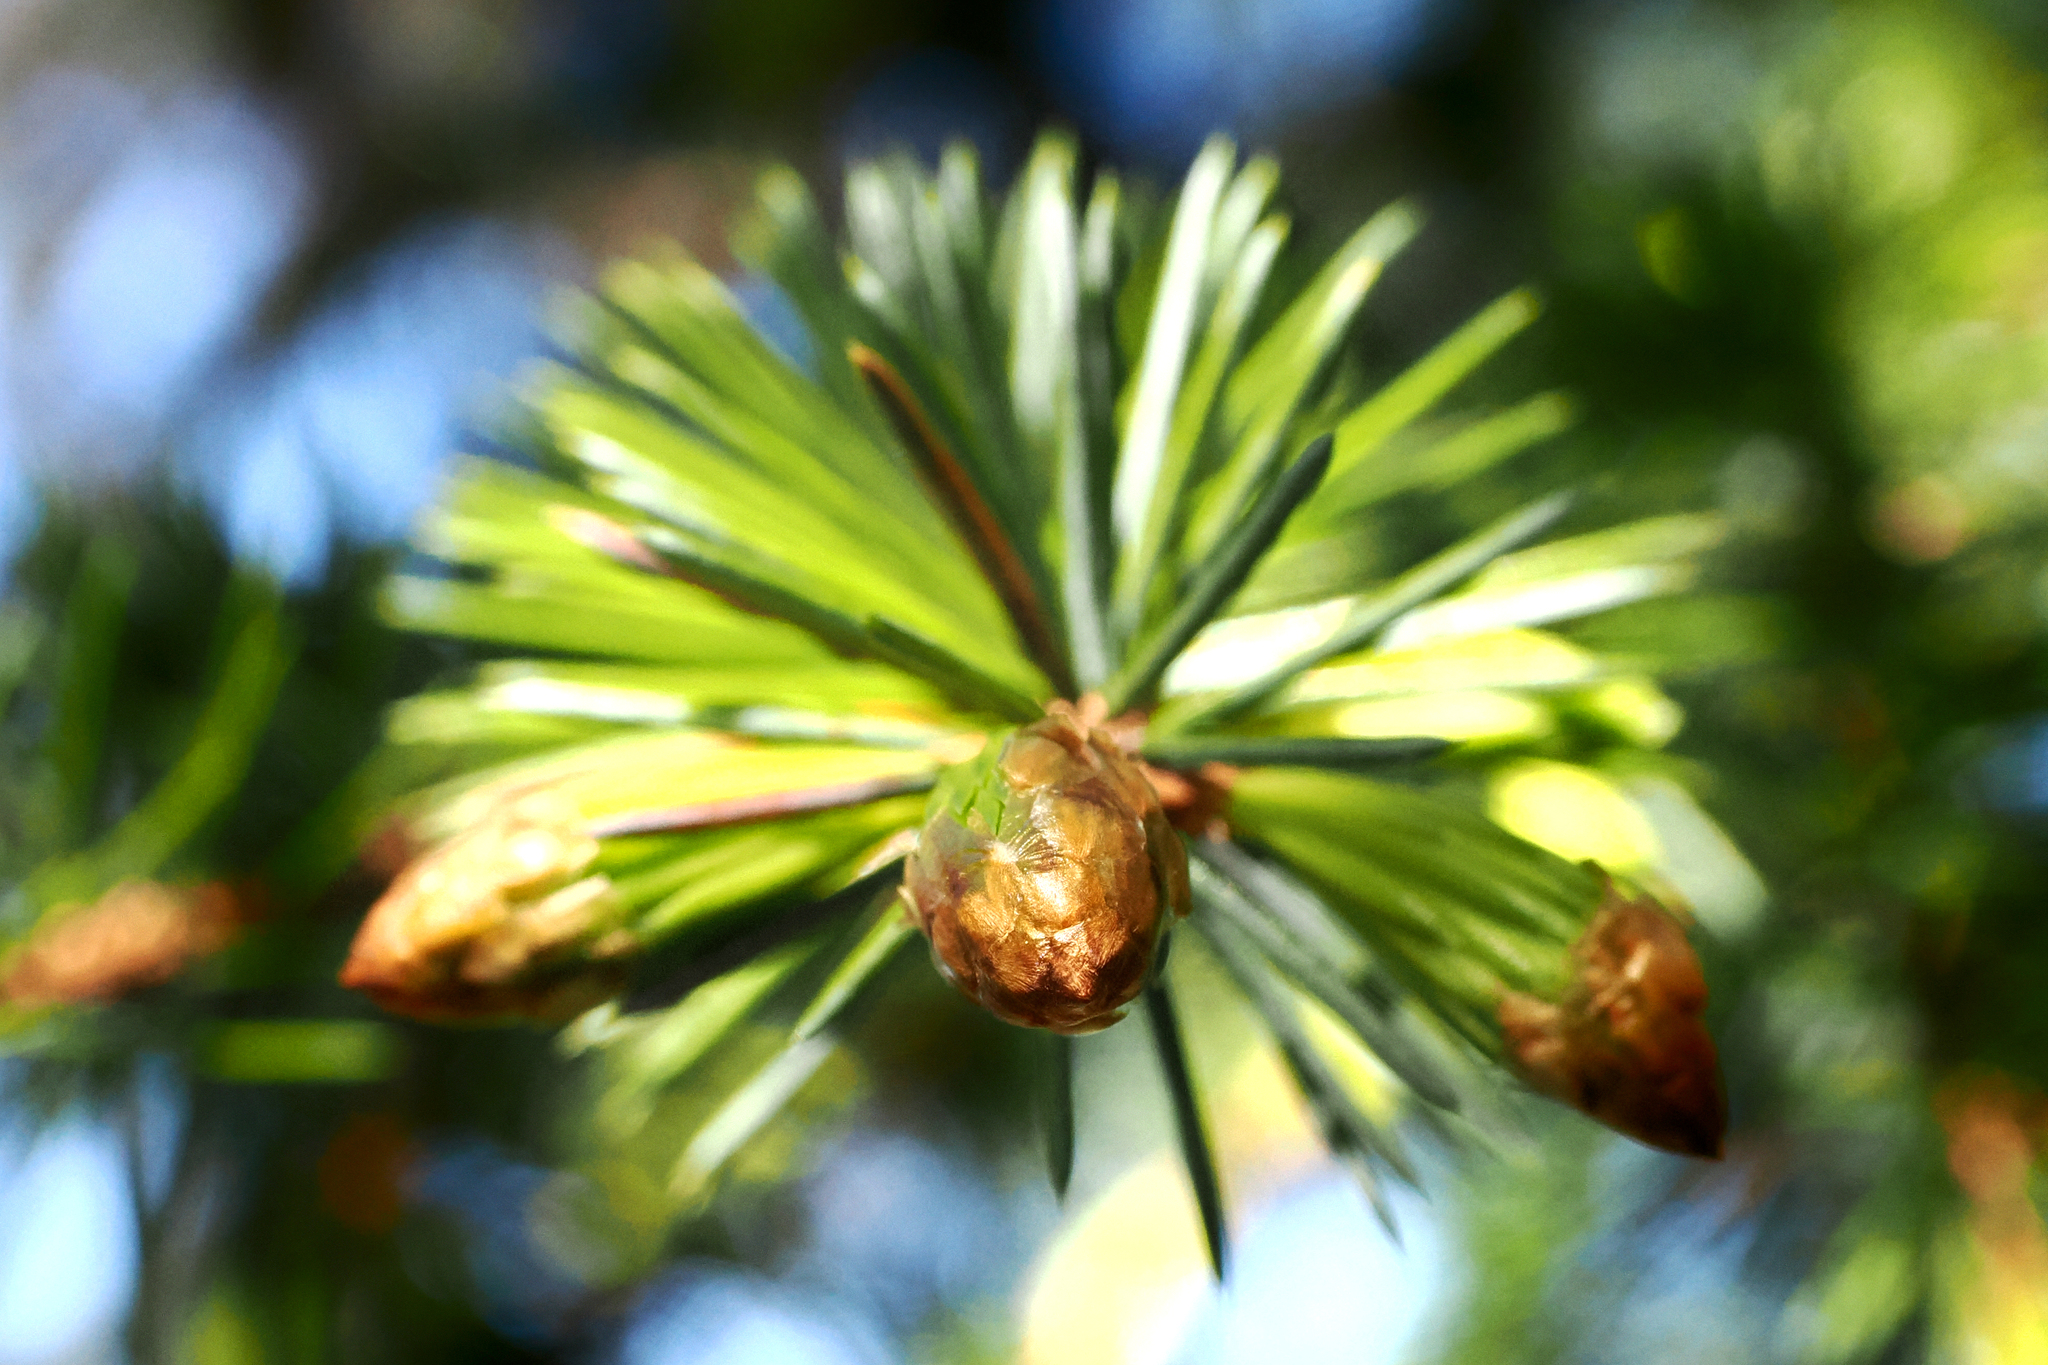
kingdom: Plantae
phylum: Tracheophyta
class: Pinopsida
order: Pinales
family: Pinaceae
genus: Picea
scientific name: Picea sitchensis
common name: Sitka spruce
